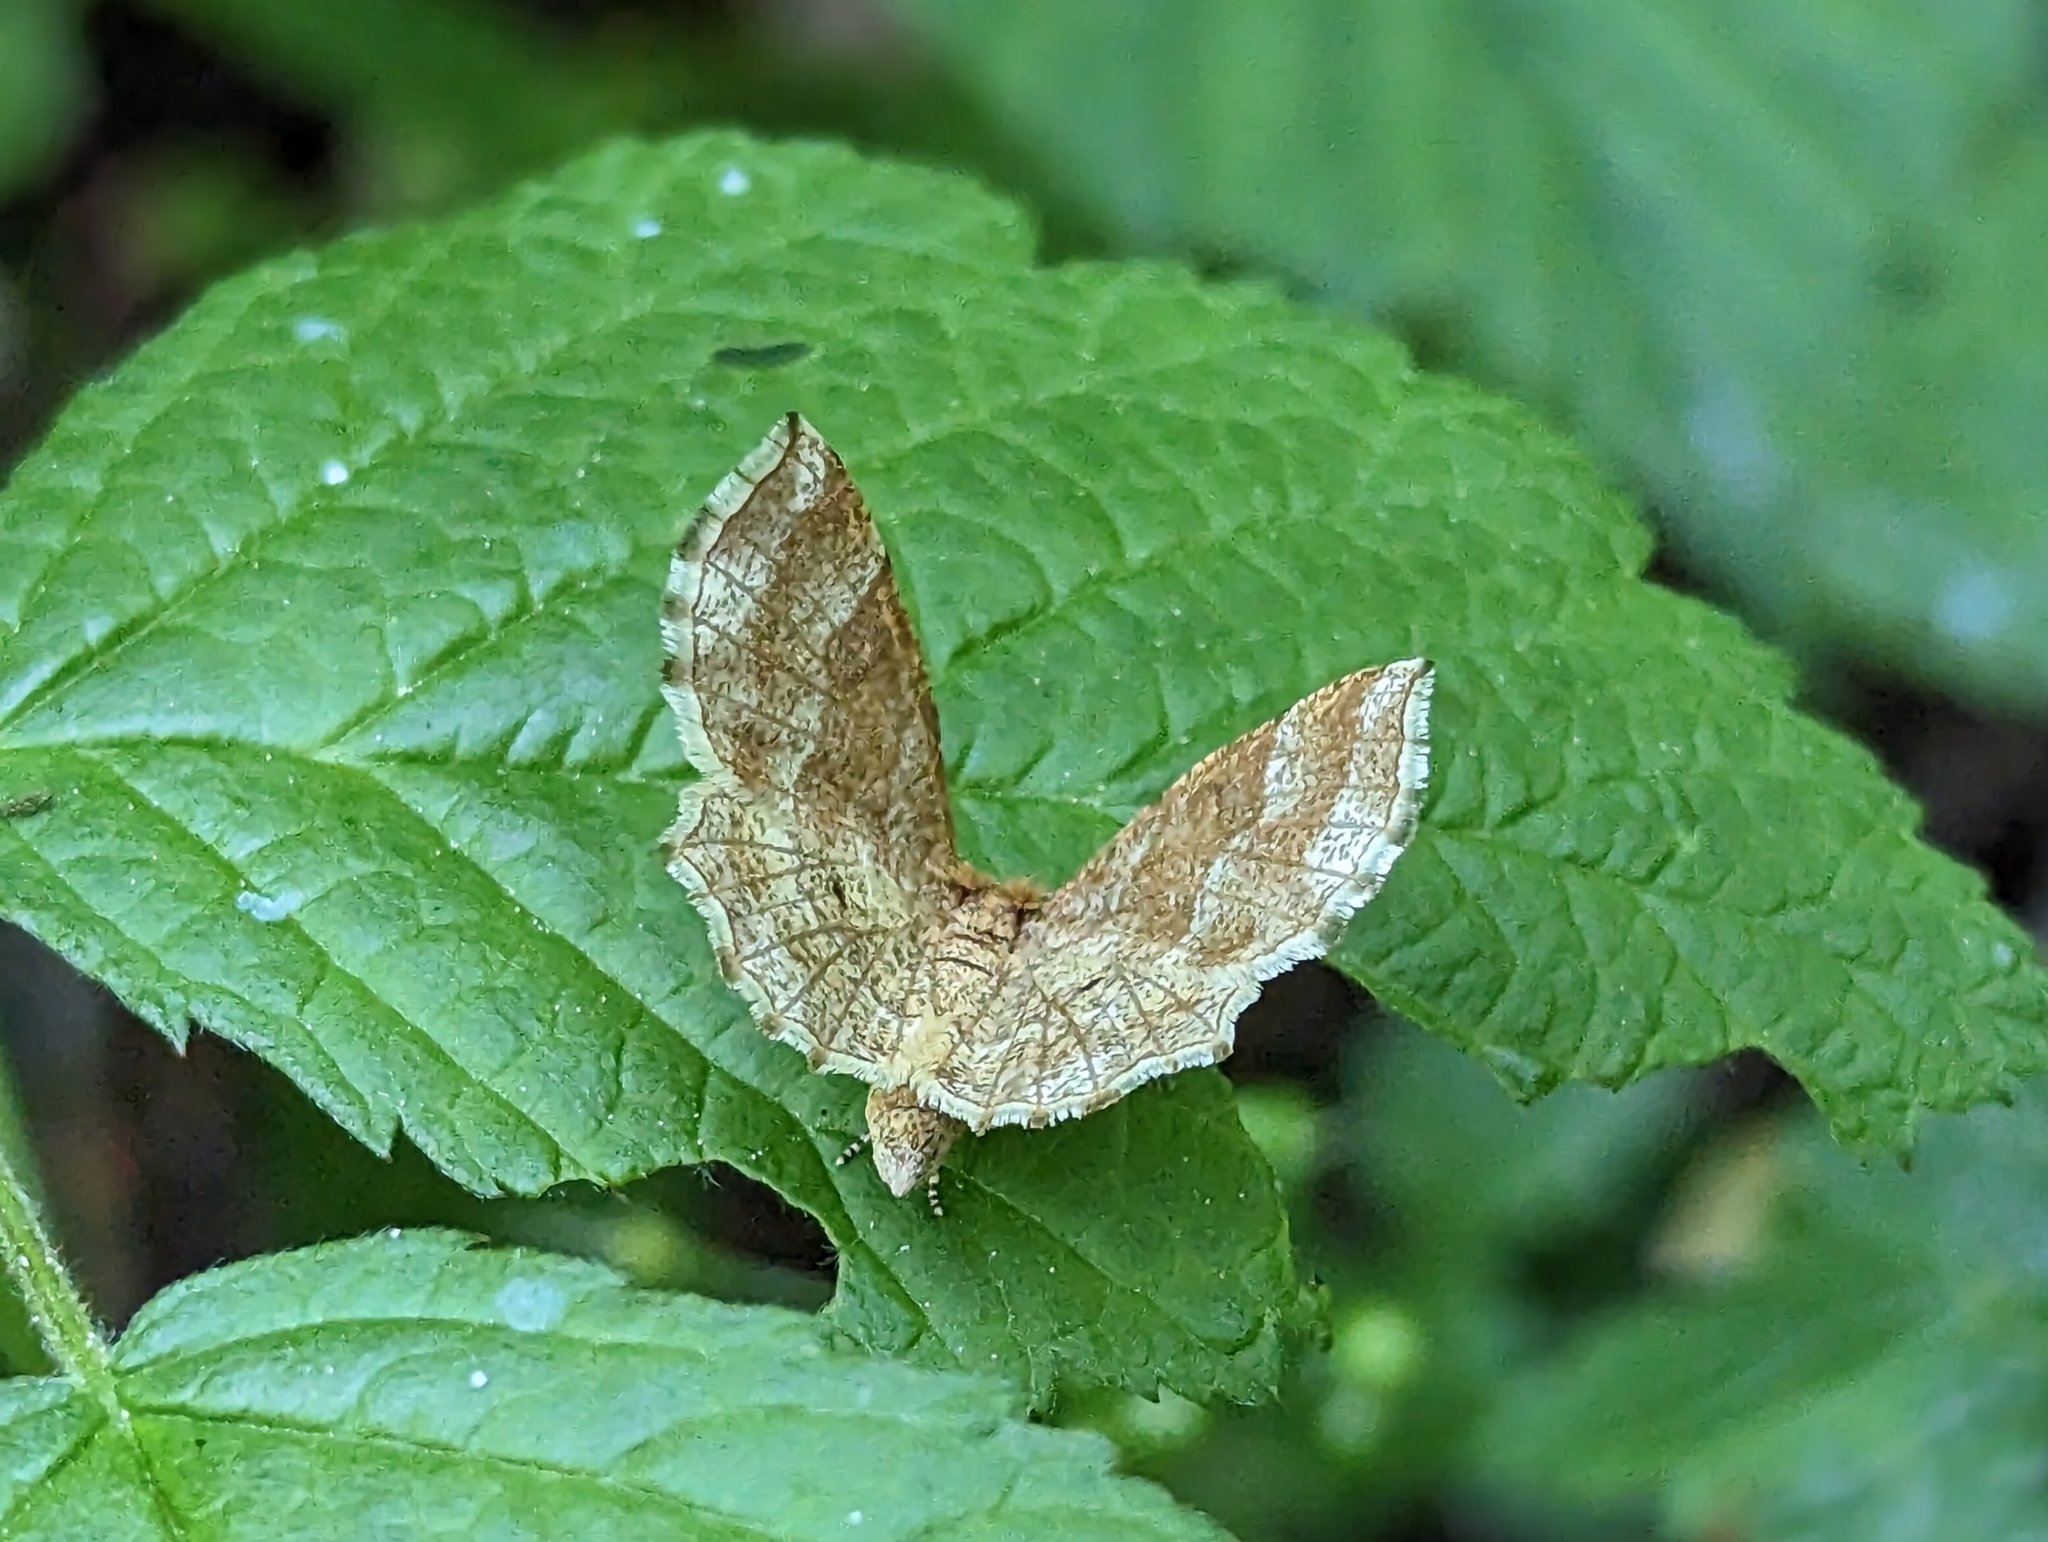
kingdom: Animalia
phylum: Arthropoda
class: Insecta
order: Lepidoptera
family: Geometridae
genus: Cepphis
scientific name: Cepphis advenaria
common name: Little thorn
